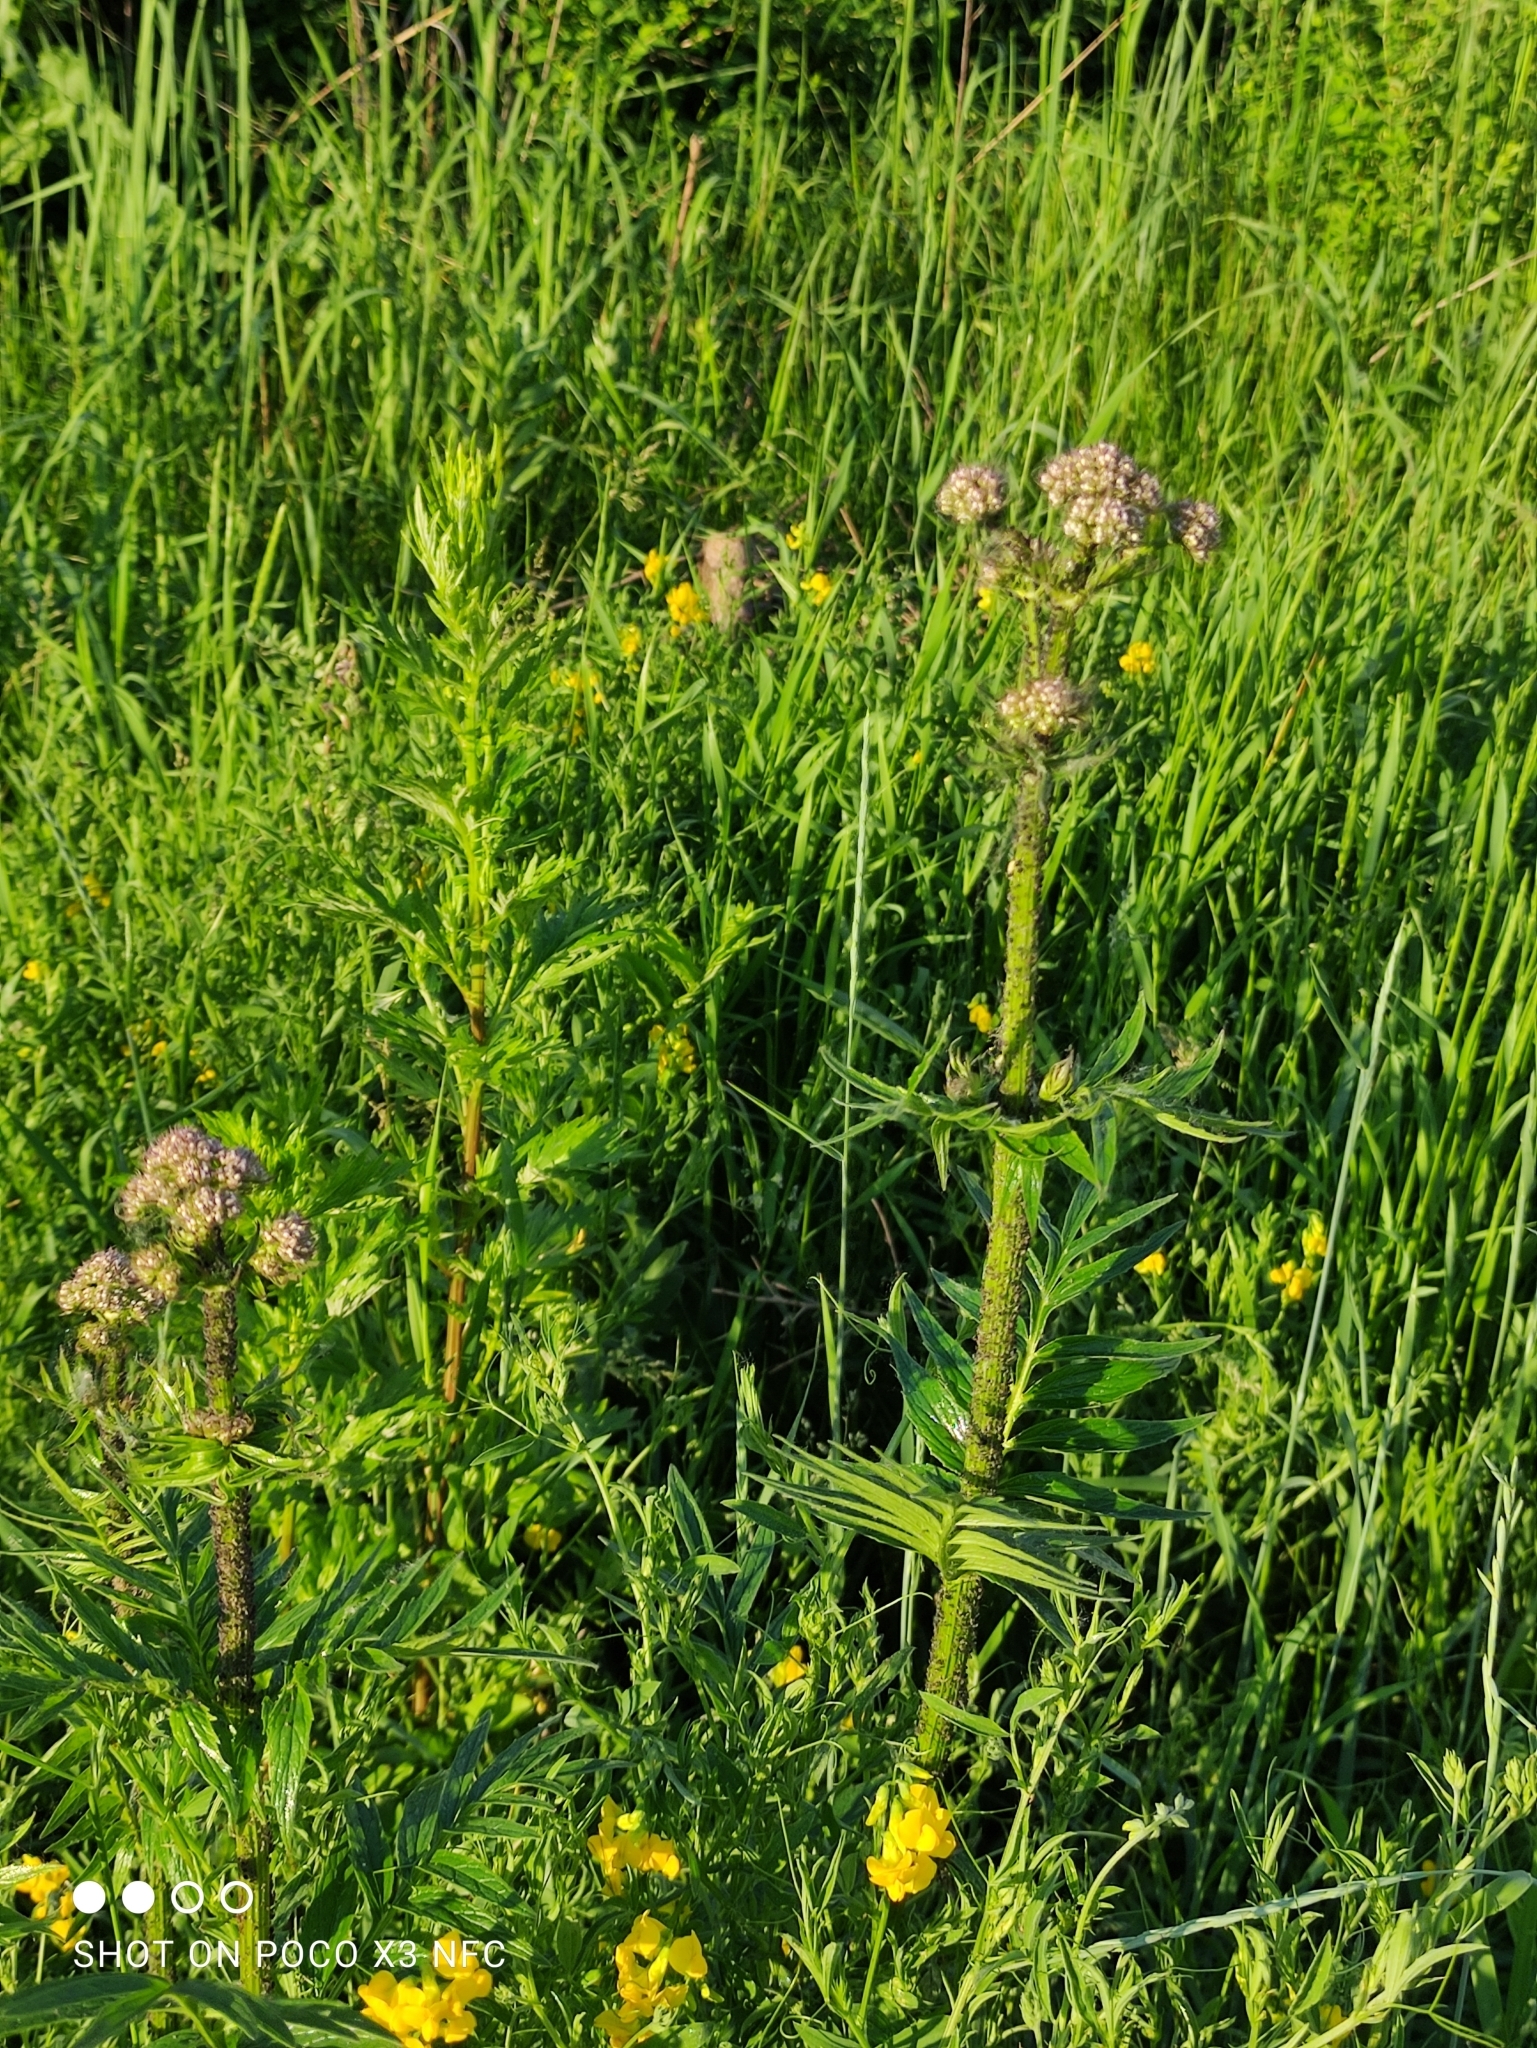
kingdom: Plantae
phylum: Tracheophyta
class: Magnoliopsida
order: Dipsacales
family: Caprifoliaceae
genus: Valeriana
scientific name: Valeriana officinalis
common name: Common valerian
